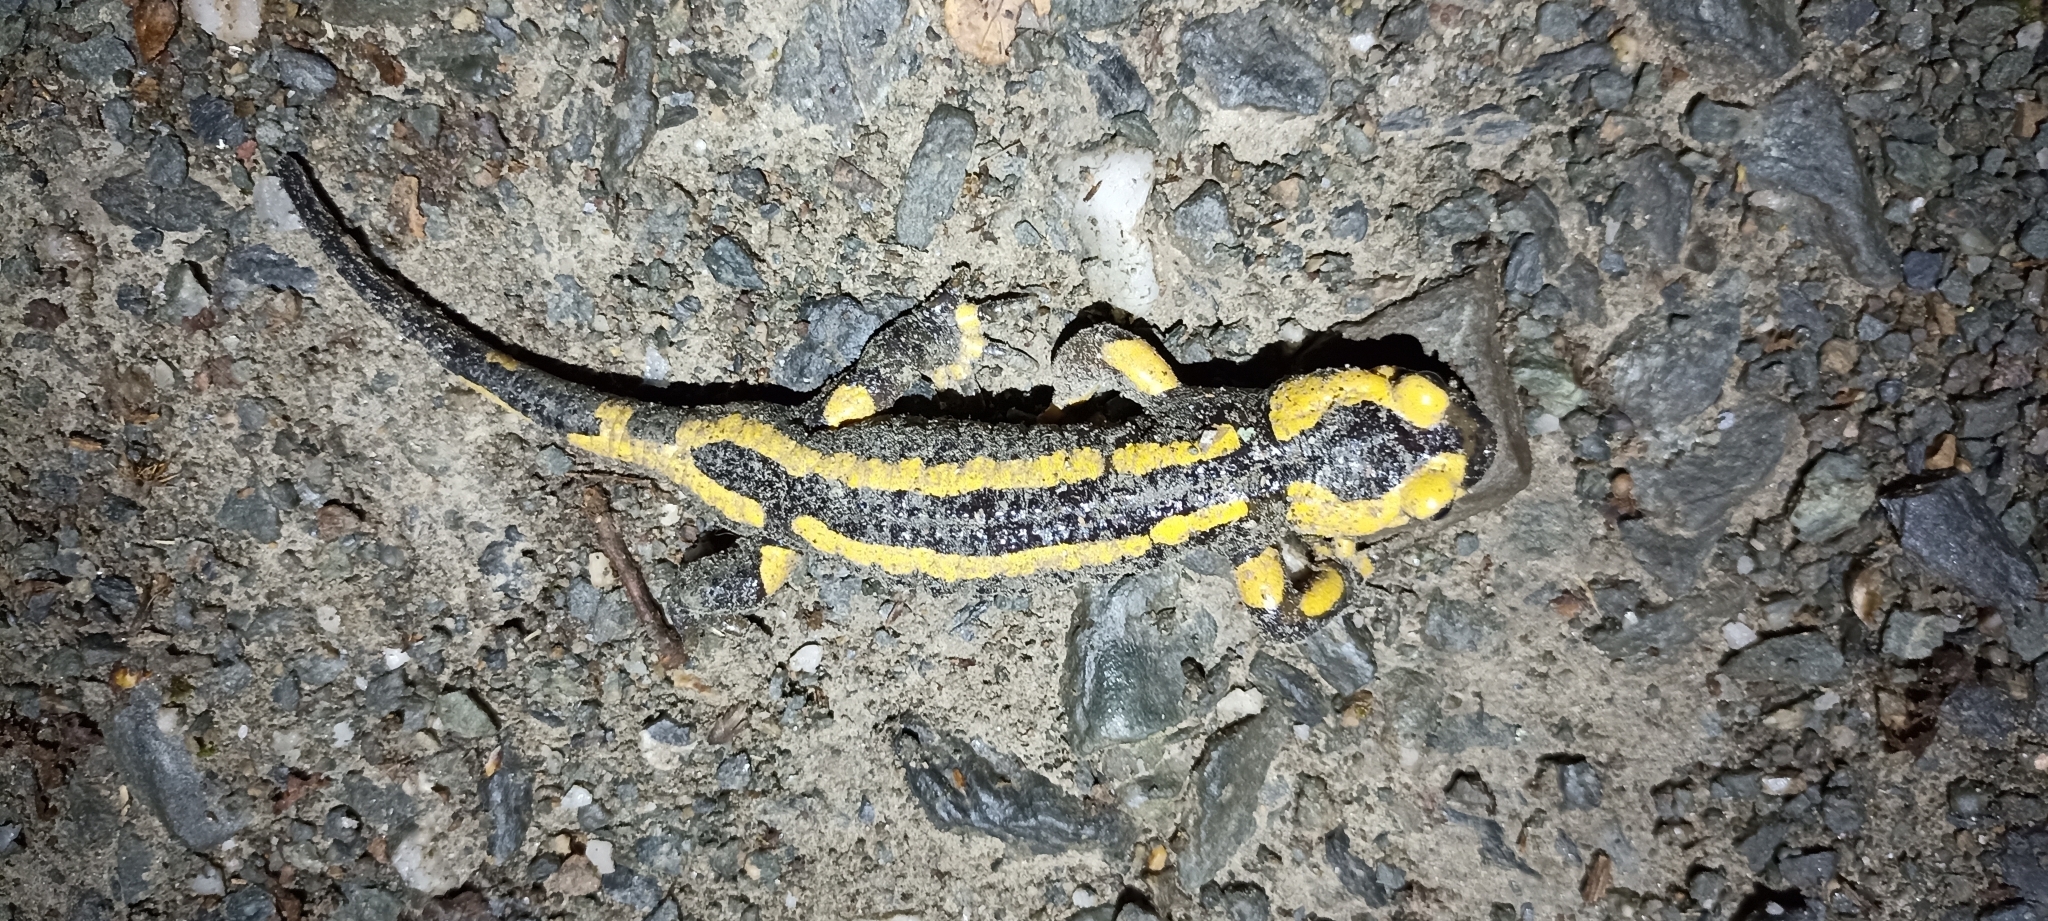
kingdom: Animalia
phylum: Chordata
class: Amphibia
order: Caudata
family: Salamandridae
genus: Salamandra
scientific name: Salamandra salamandra
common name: Fire salamander
